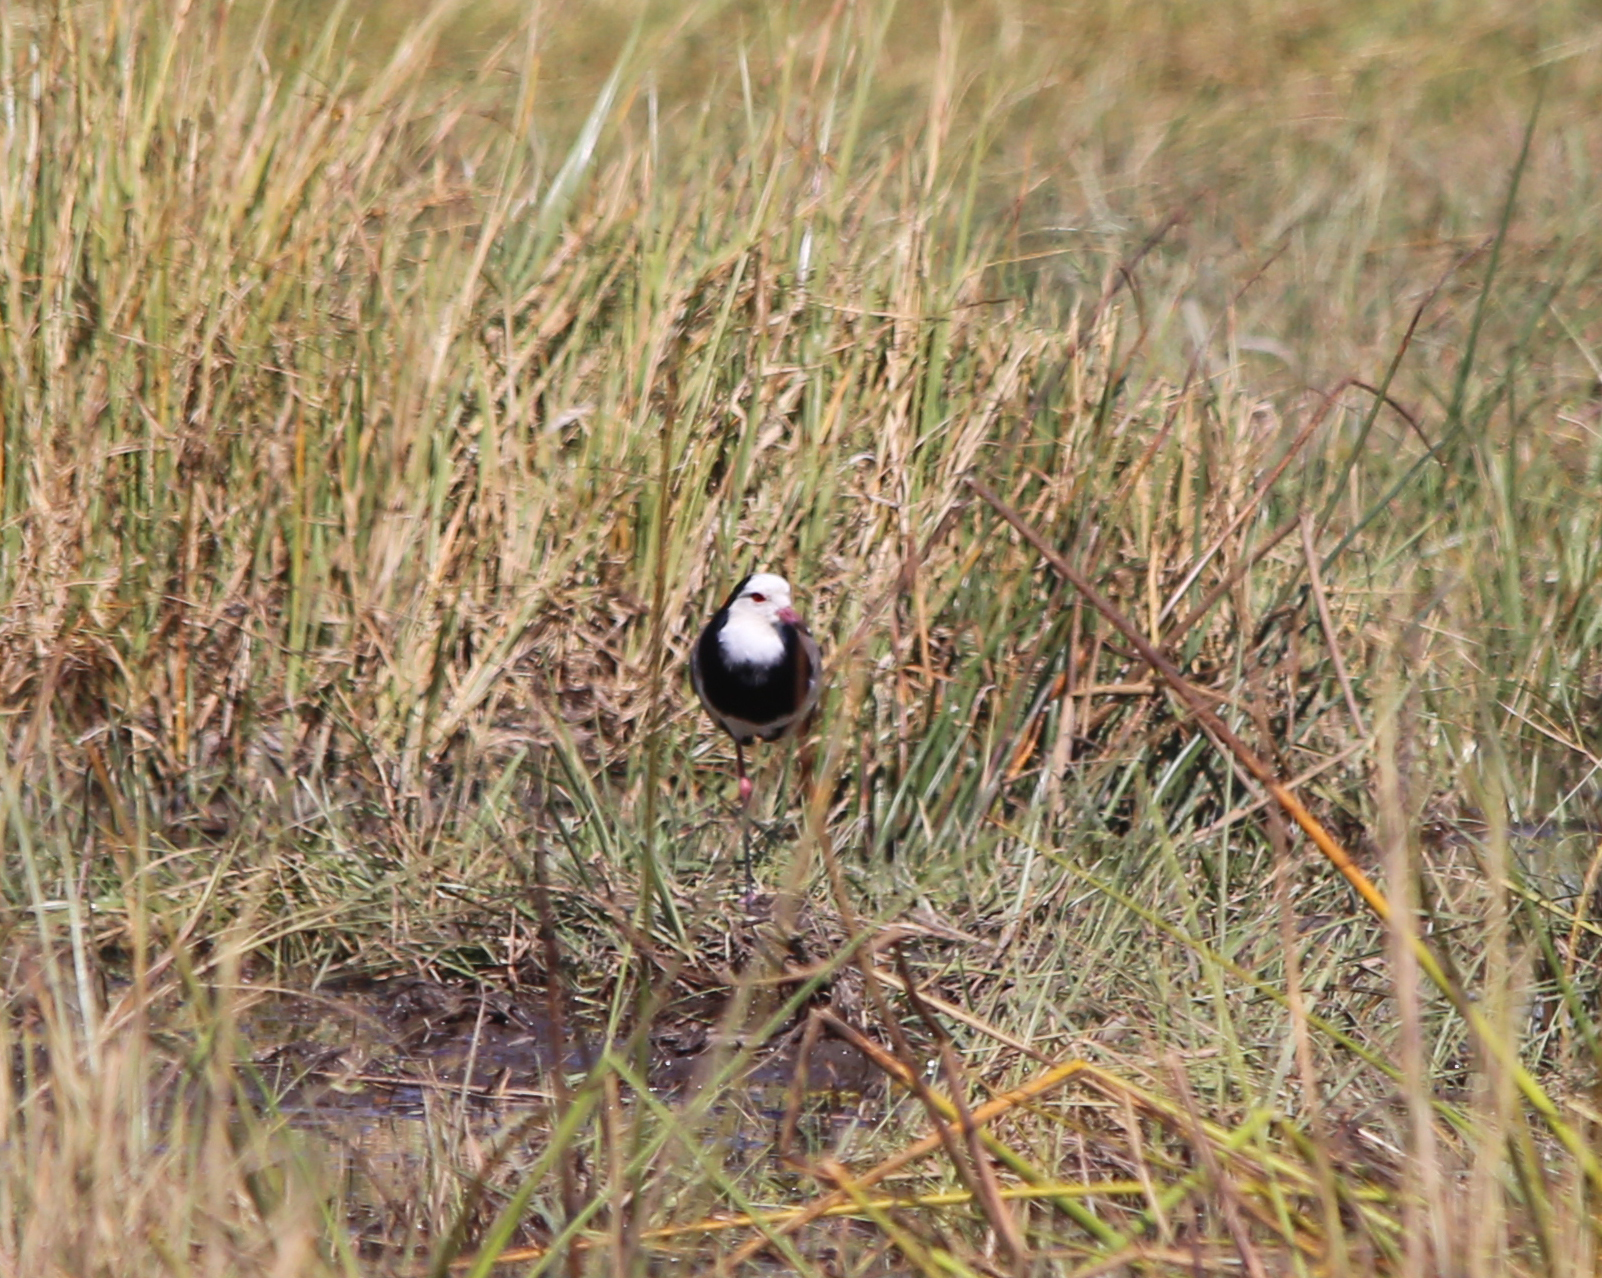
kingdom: Animalia
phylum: Chordata
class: Aves
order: Charadriiformes
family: Charadriidae
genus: Vanellus
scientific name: Vanellus crassirostris
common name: Long-toed lapwing
